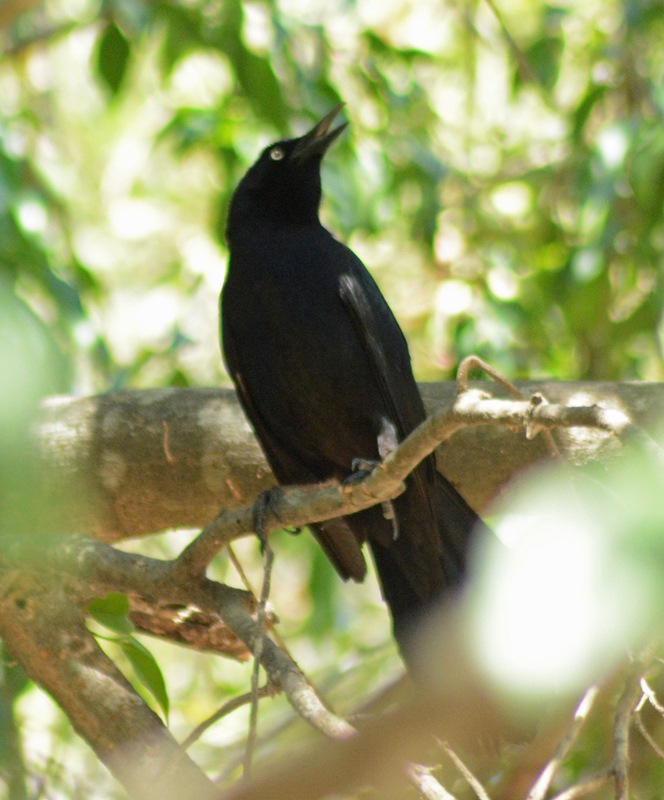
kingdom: Animalia
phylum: Chordata
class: Aves
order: Passeriformes
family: Icteridae
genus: Quiscalus
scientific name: Quiscalus mexicanus
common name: Great-tailed grackle
